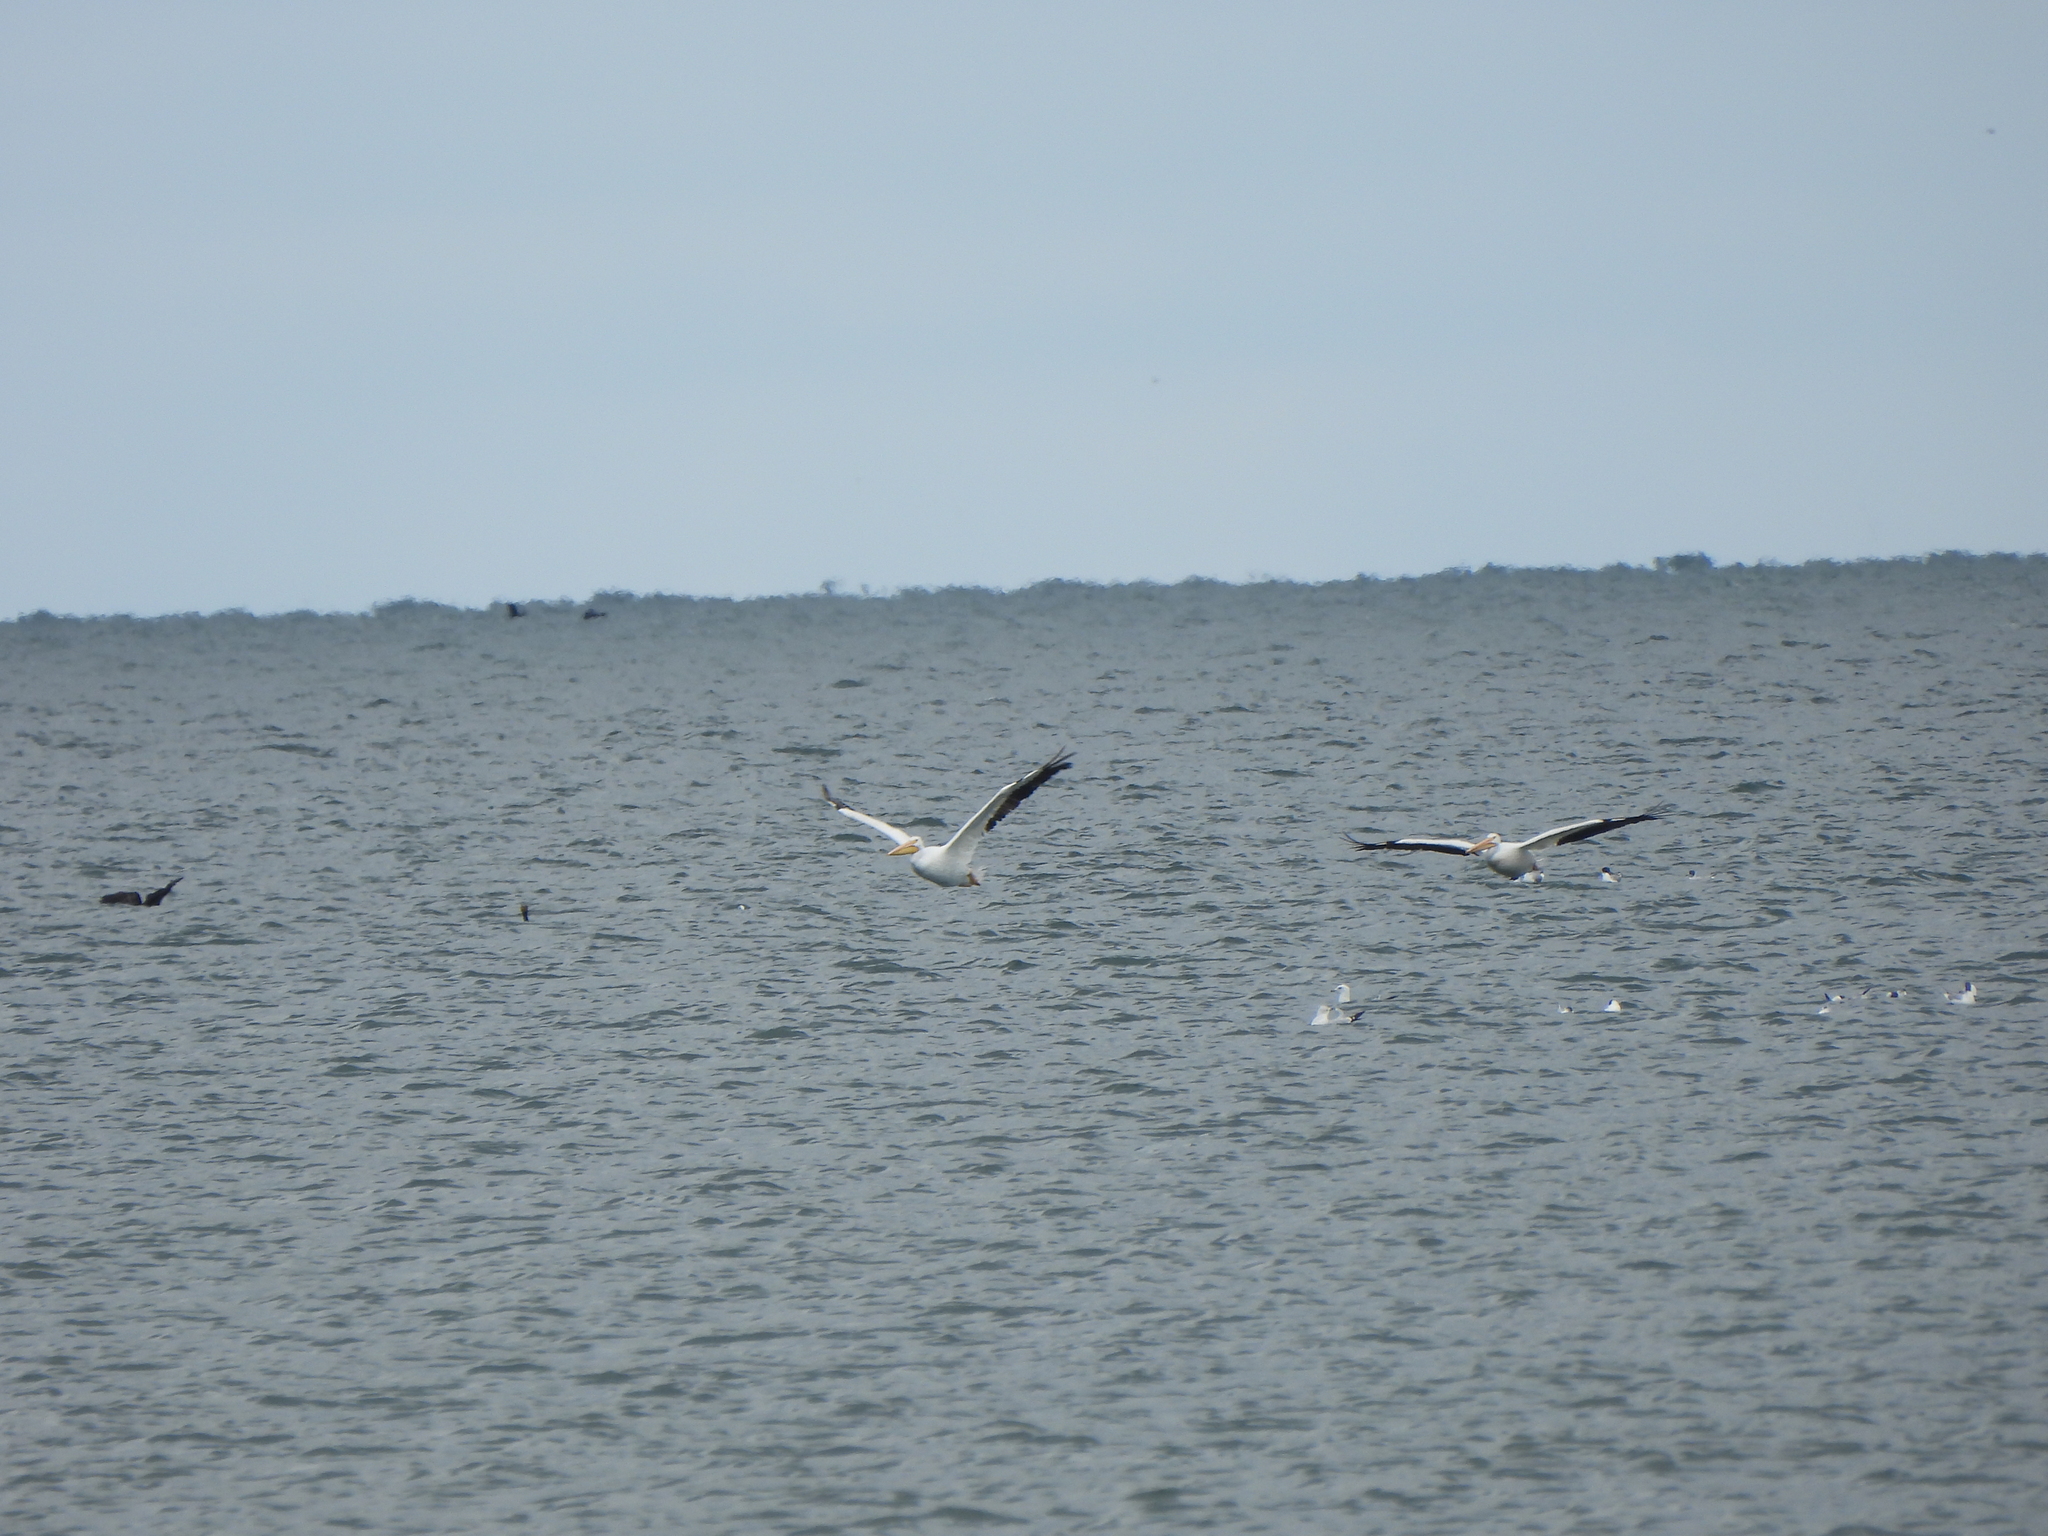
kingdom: Animalia
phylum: Chordata
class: Aves
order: Pelecaniformes
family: Pelecanidae
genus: Pelecanus
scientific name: Pelecanus erythrorhynchos
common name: American white pelican
